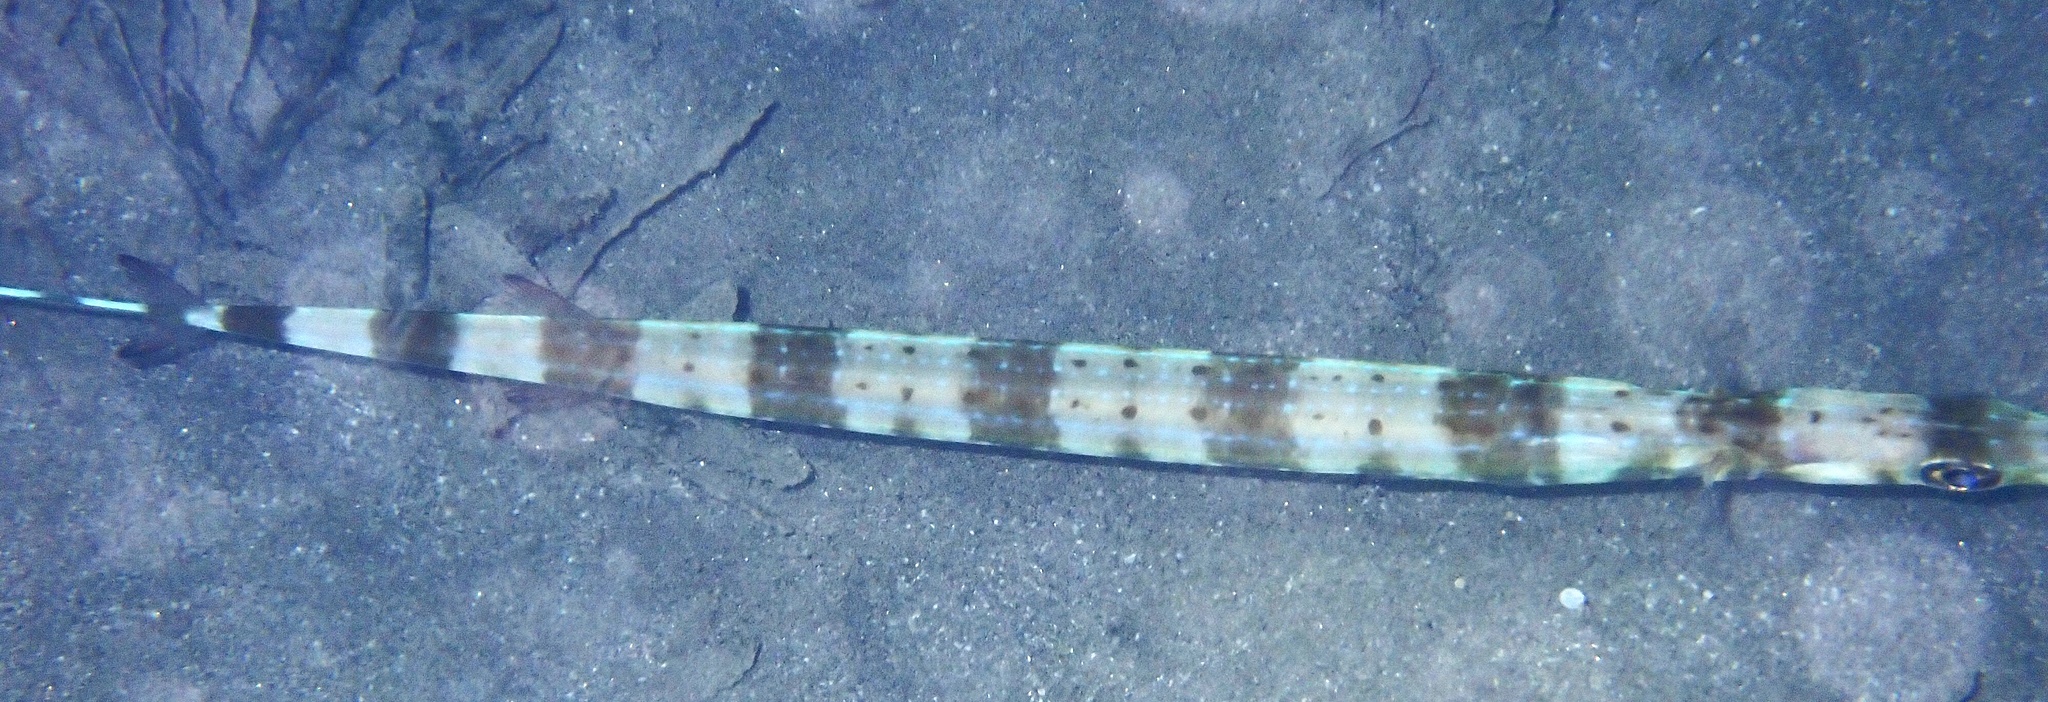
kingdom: Animalia
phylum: Chordata
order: Syngnathiformes
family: Fistulariidae
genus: Fistularia
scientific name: Fistularia commersonii
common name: Bluespotted cornetfish
